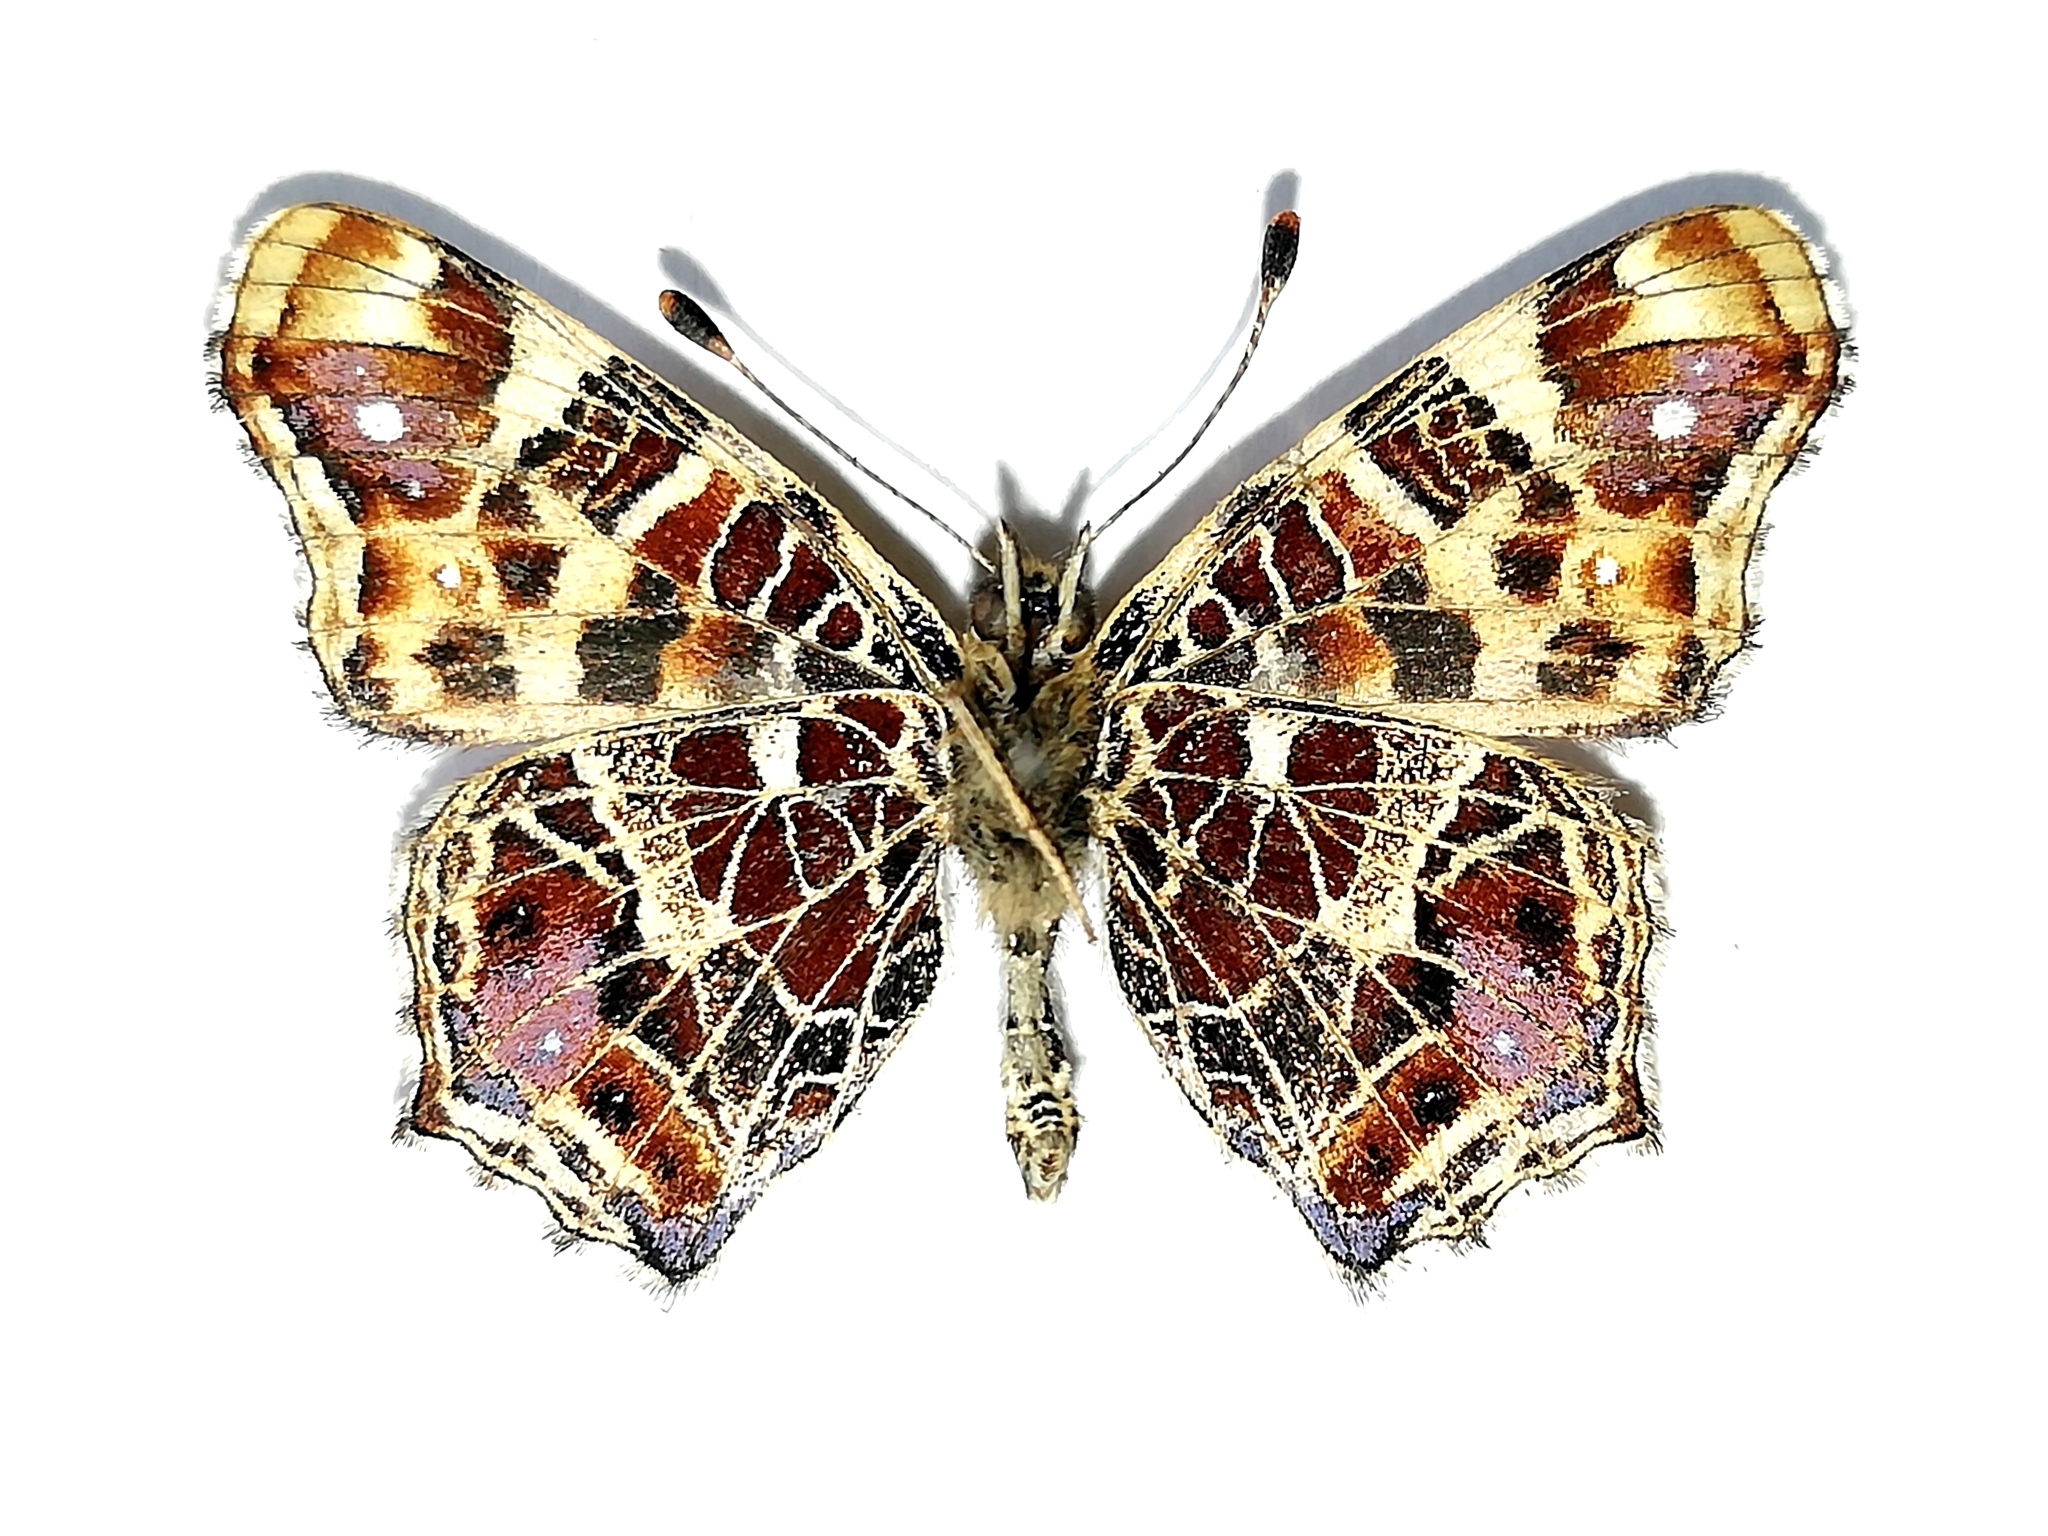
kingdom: Animalia
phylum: Arthropoda
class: Insecta
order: Lepidoptera
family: Nymphalidae
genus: Araschnia
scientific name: Araschnia levana
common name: Map butterfly
